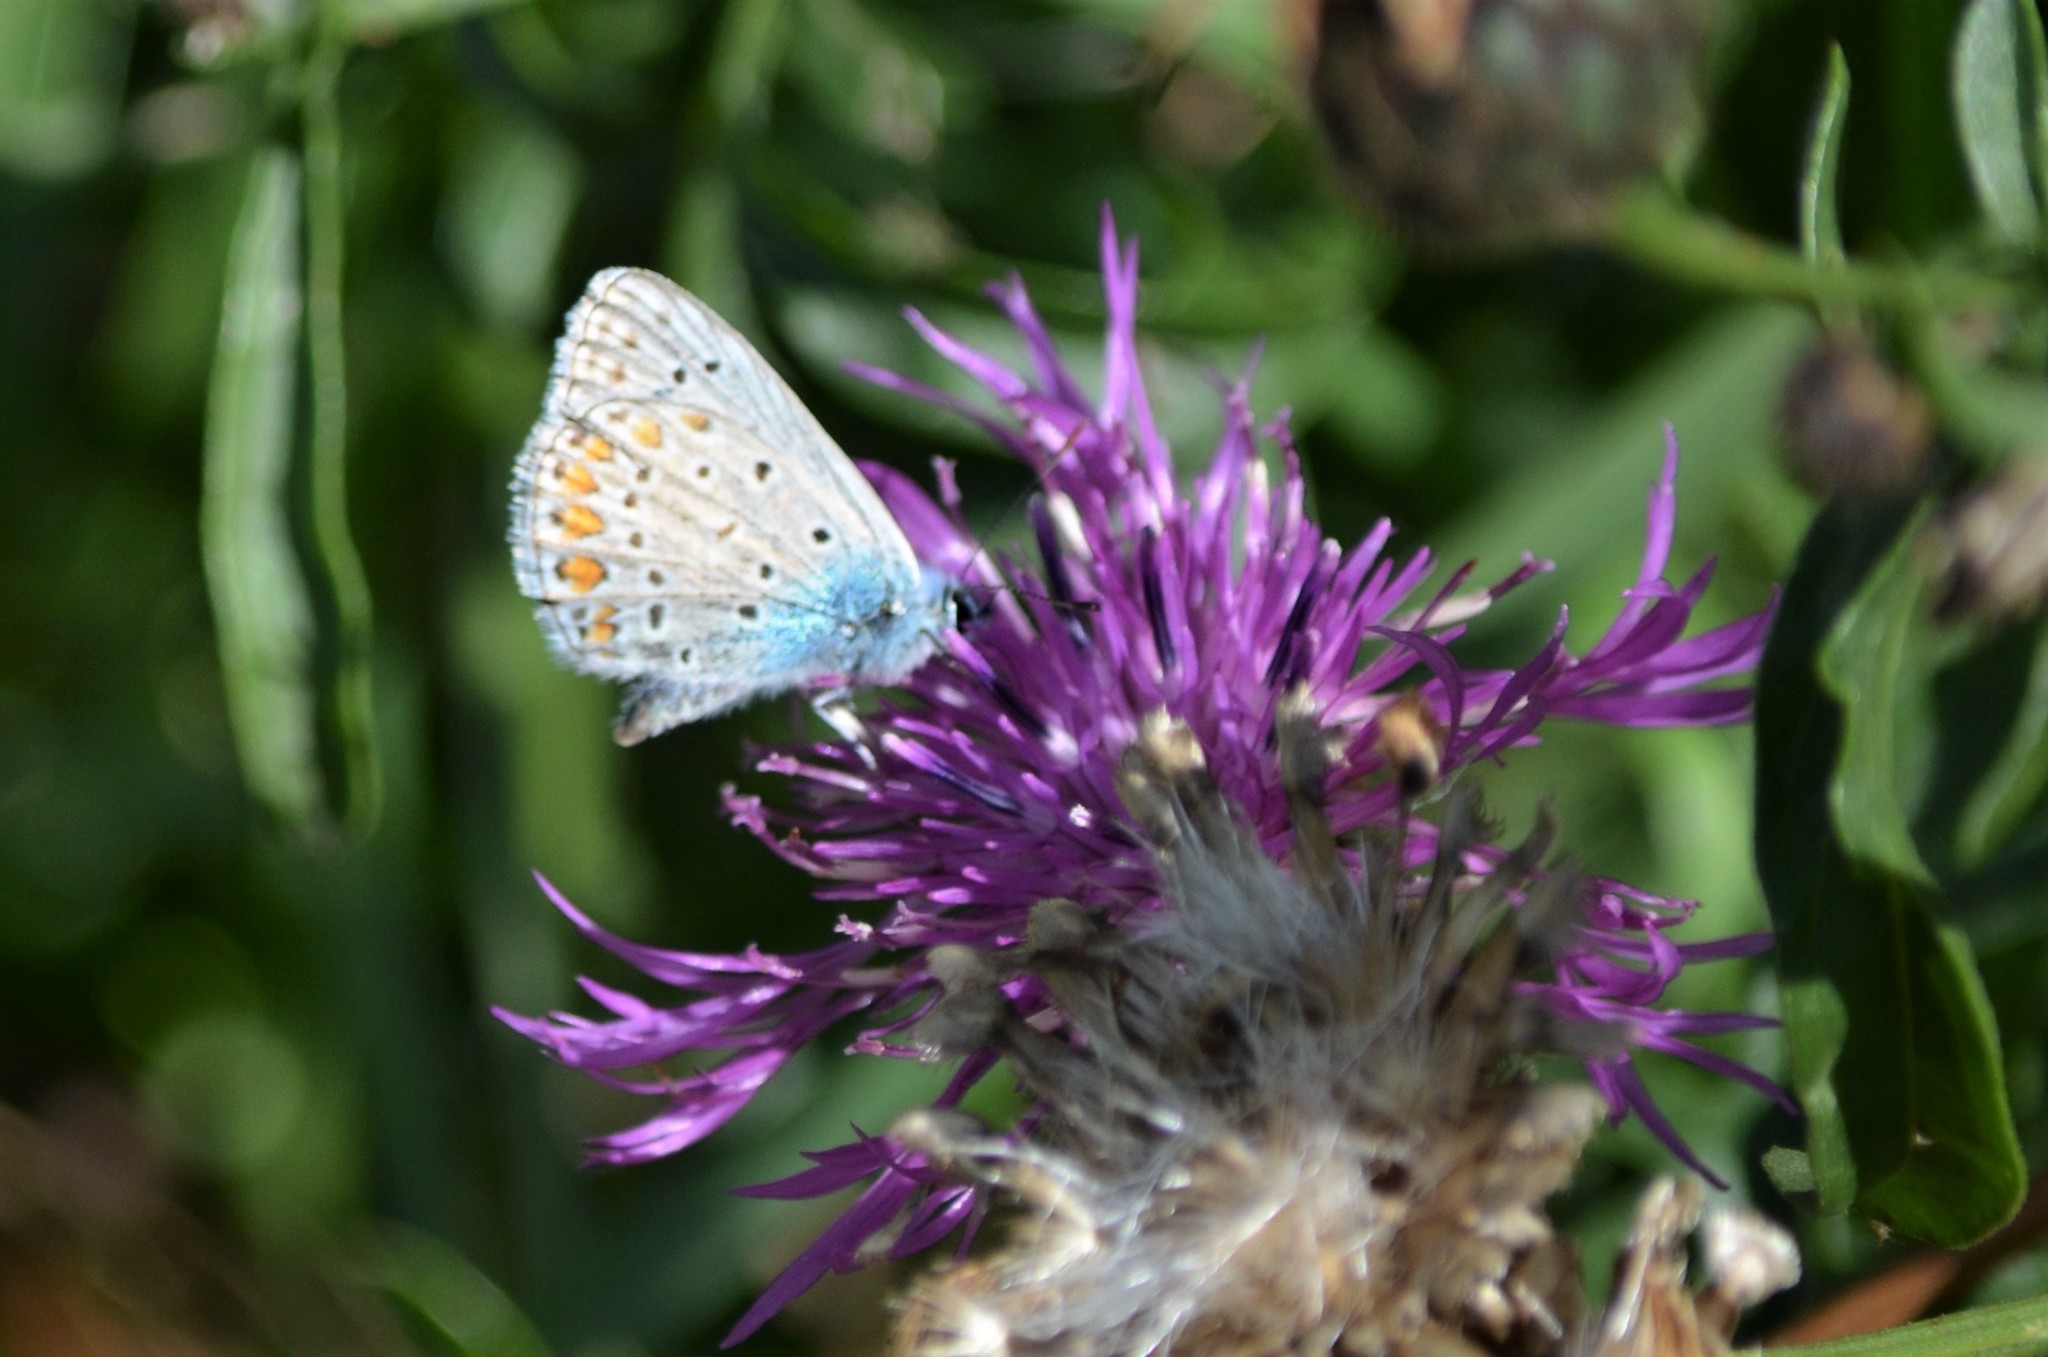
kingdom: Animalia
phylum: Arthropoda
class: Insecta
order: Lepidoptera
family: Lycaenidae
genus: Polyommatus
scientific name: Polyommatus icarus
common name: Common blue
